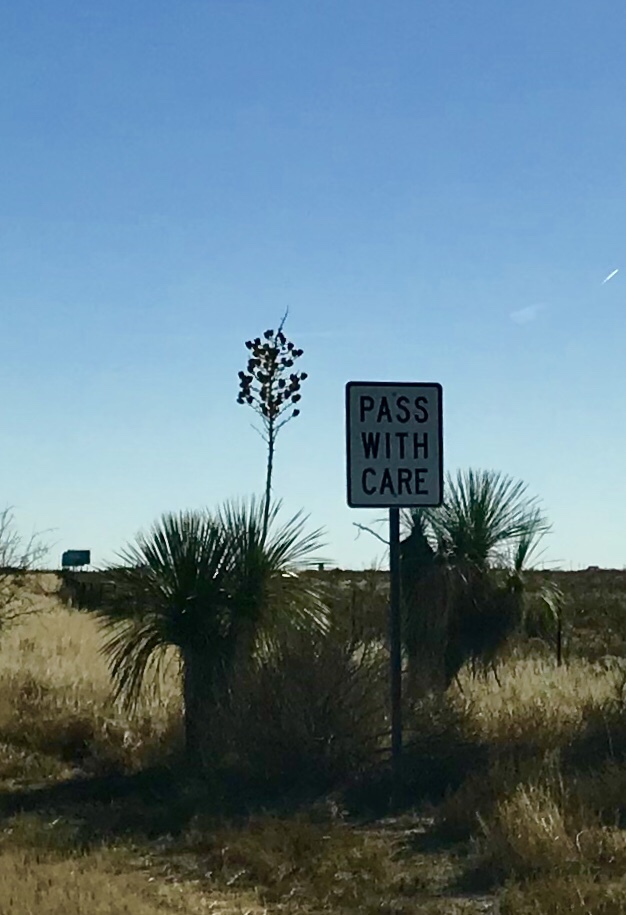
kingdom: Plantae
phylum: Tracheophyta
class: Liliopsida
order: Asparagales
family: Asparagaceae
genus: Yucca
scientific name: Yucca elata
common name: Palmella
